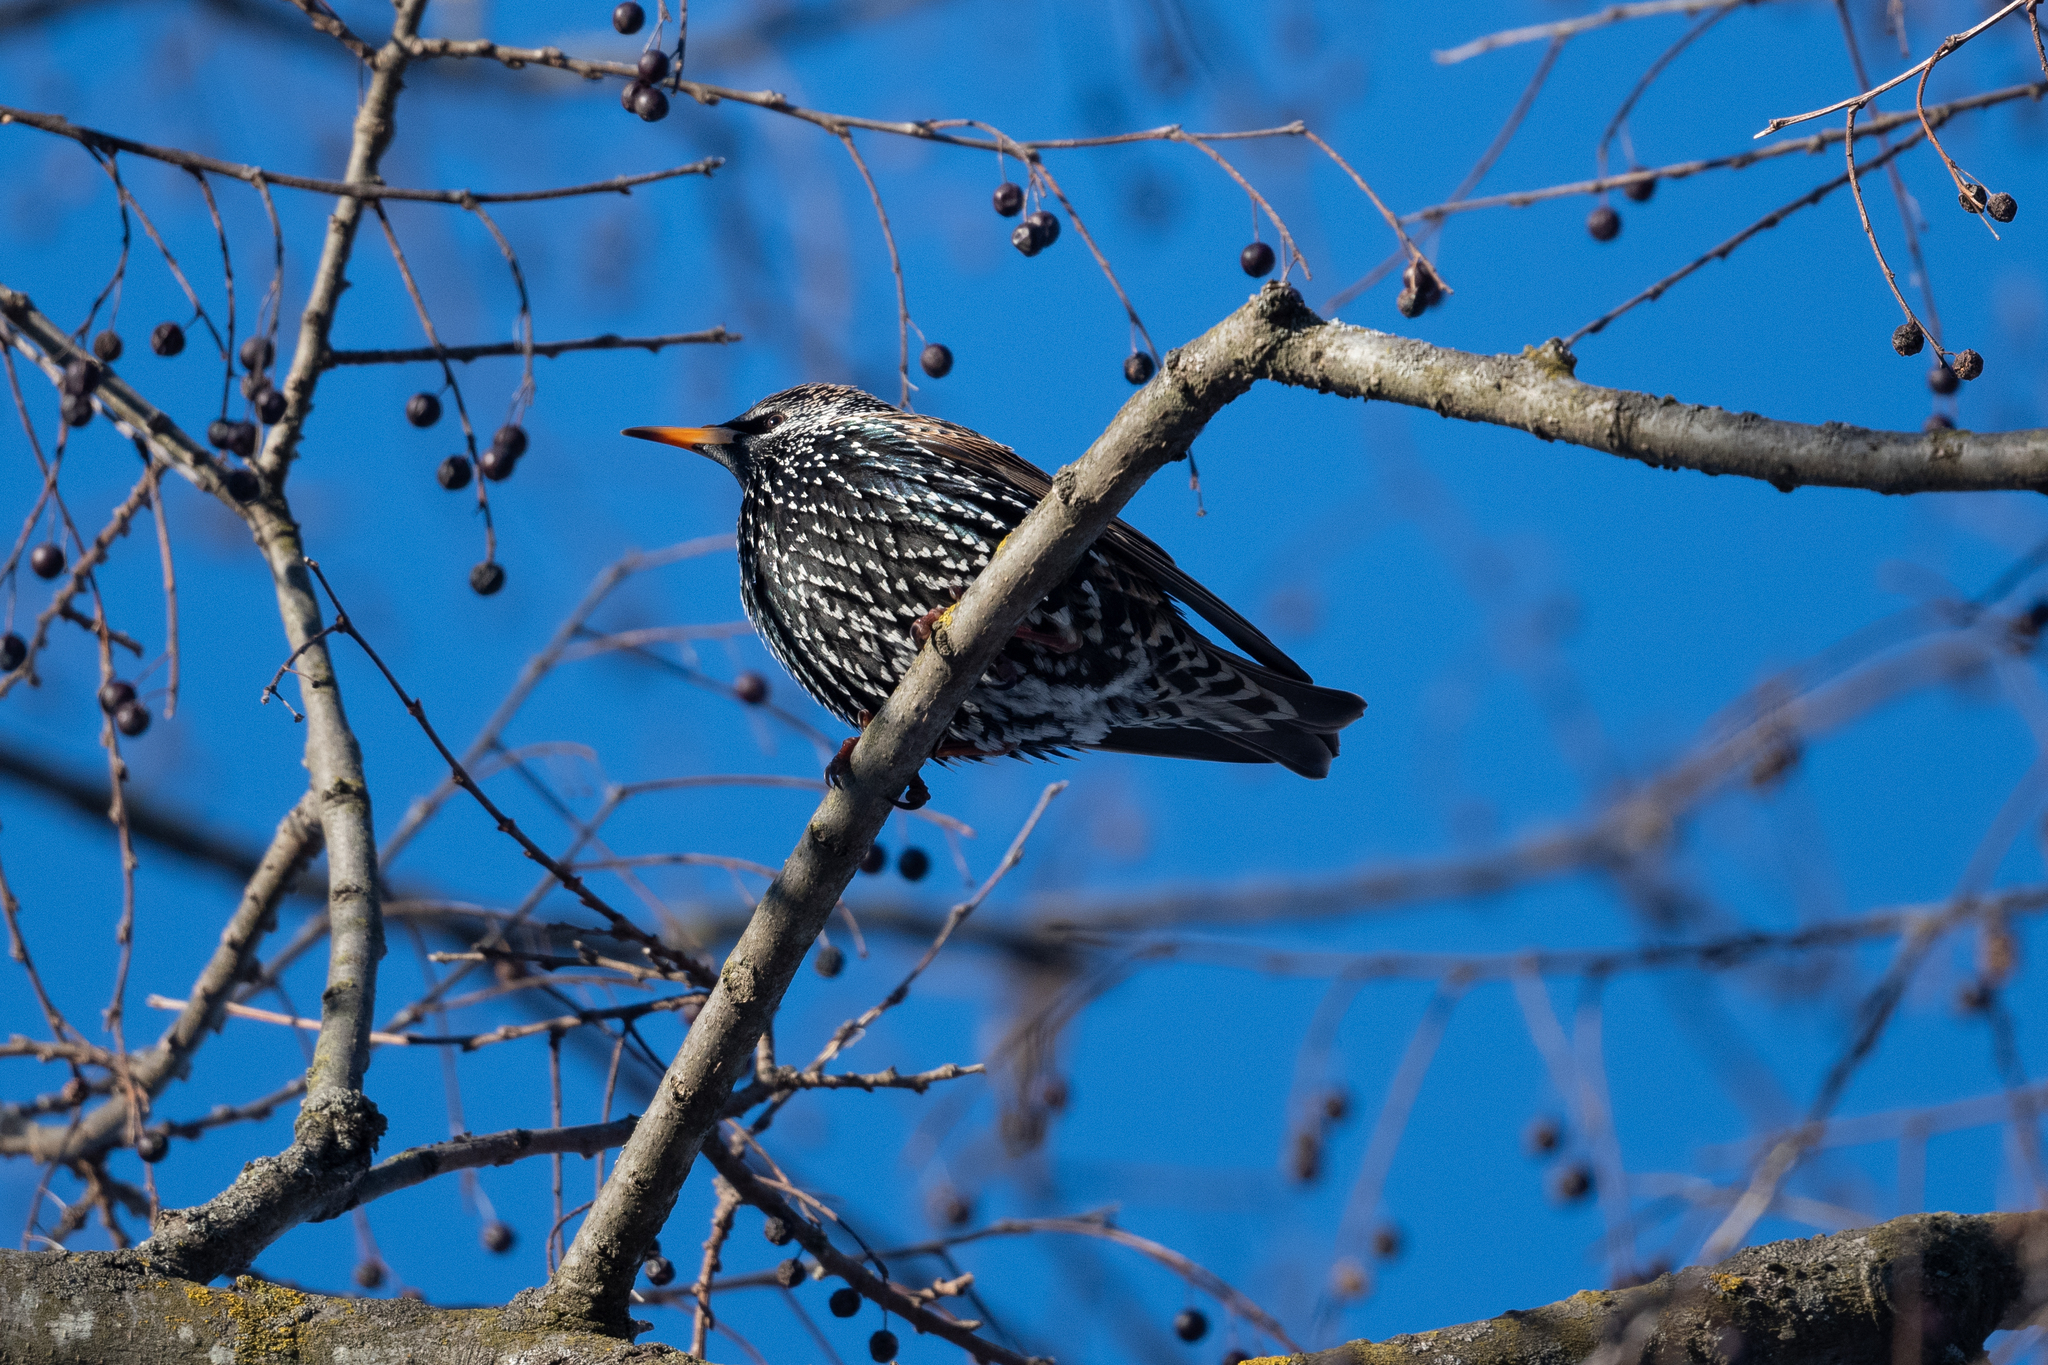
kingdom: Animalia
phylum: Chordata
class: Aves
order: Passeriformes
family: Sturnidae
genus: Sturnus
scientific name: Sturnus vulgaris
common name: Common starling
